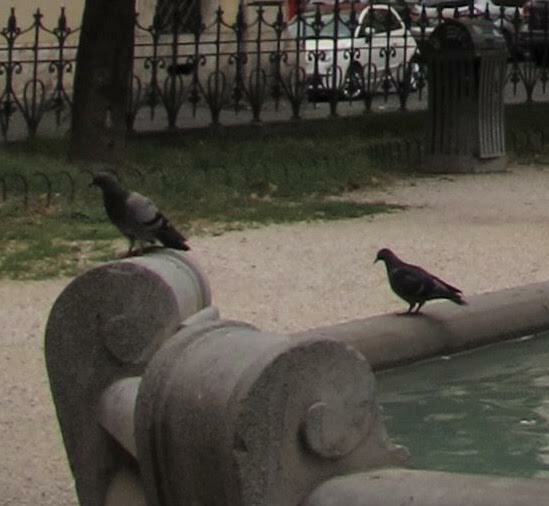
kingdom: Animalia
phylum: Chordata
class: Aves
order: Columbiformes
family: Columbidae
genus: Columba
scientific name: Columba livia
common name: Rock pigeon
